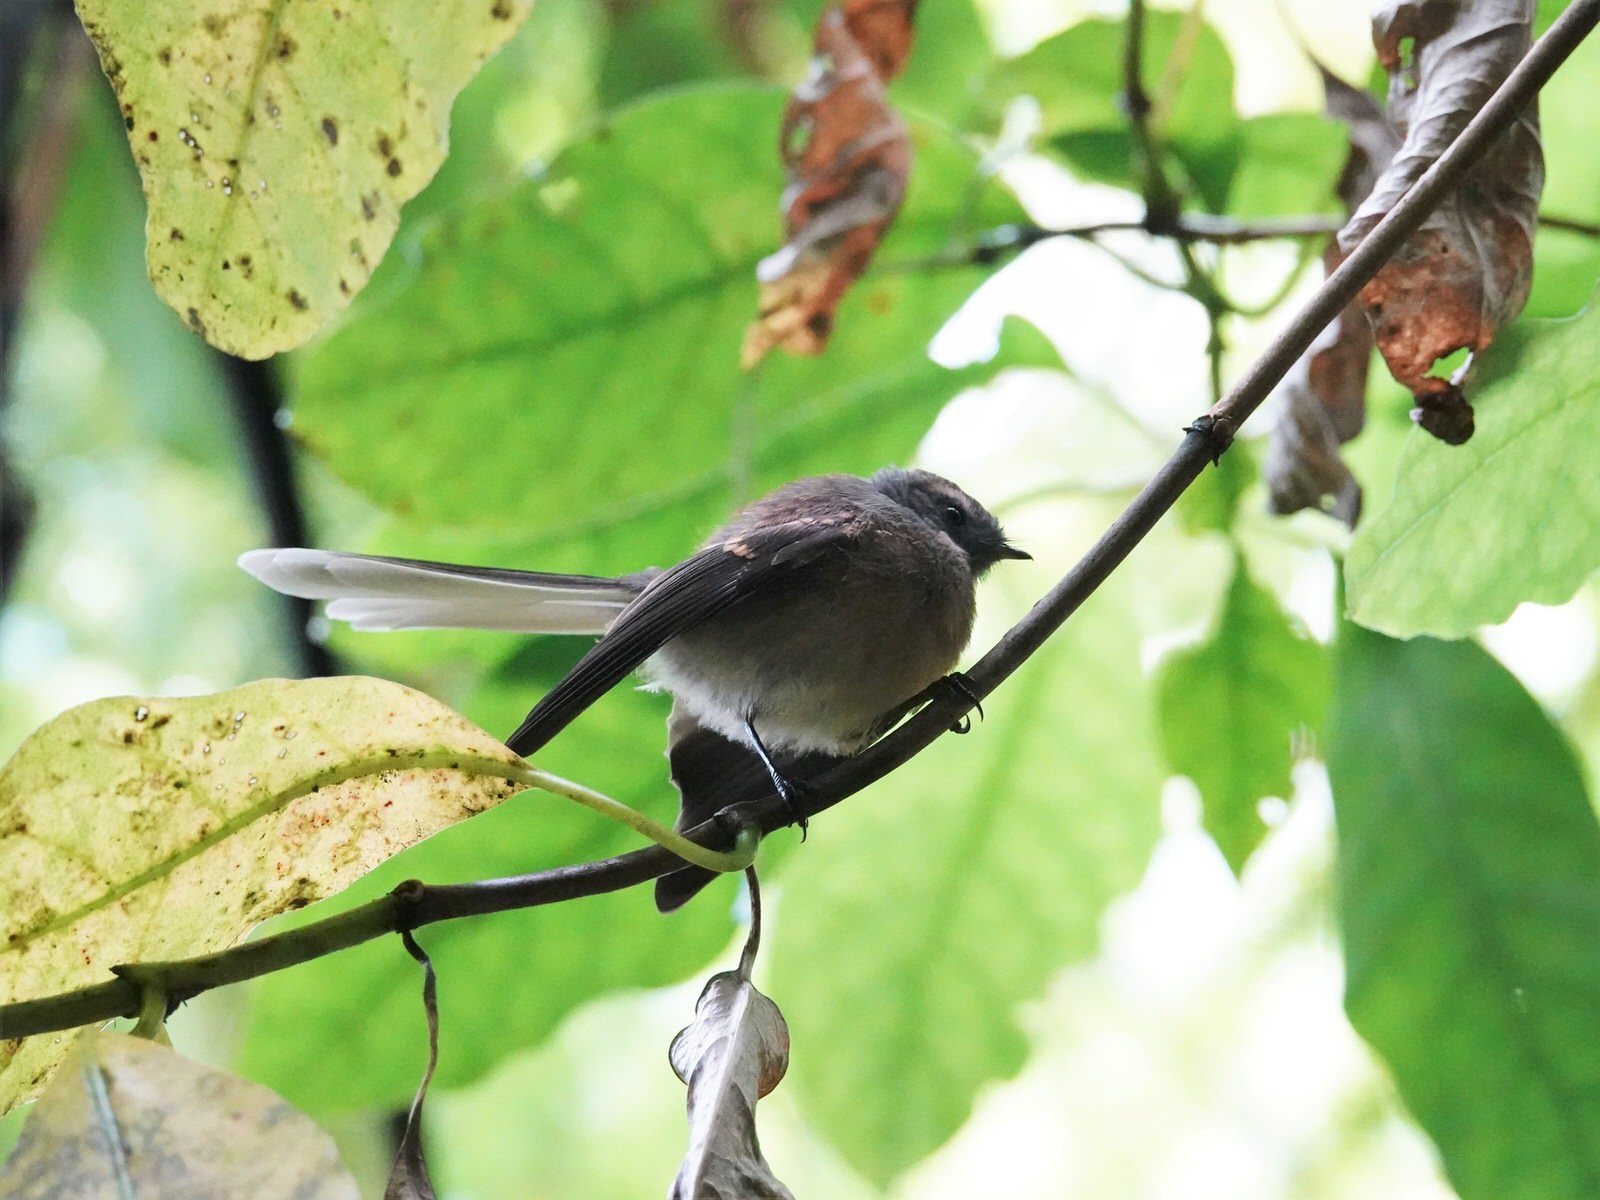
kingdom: Animalia
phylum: Chordata
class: Aves
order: Passeriformes
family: Rhipiduridae
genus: Rhipidura
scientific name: Rhipidura fuliginosa
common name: New zealand fantail
